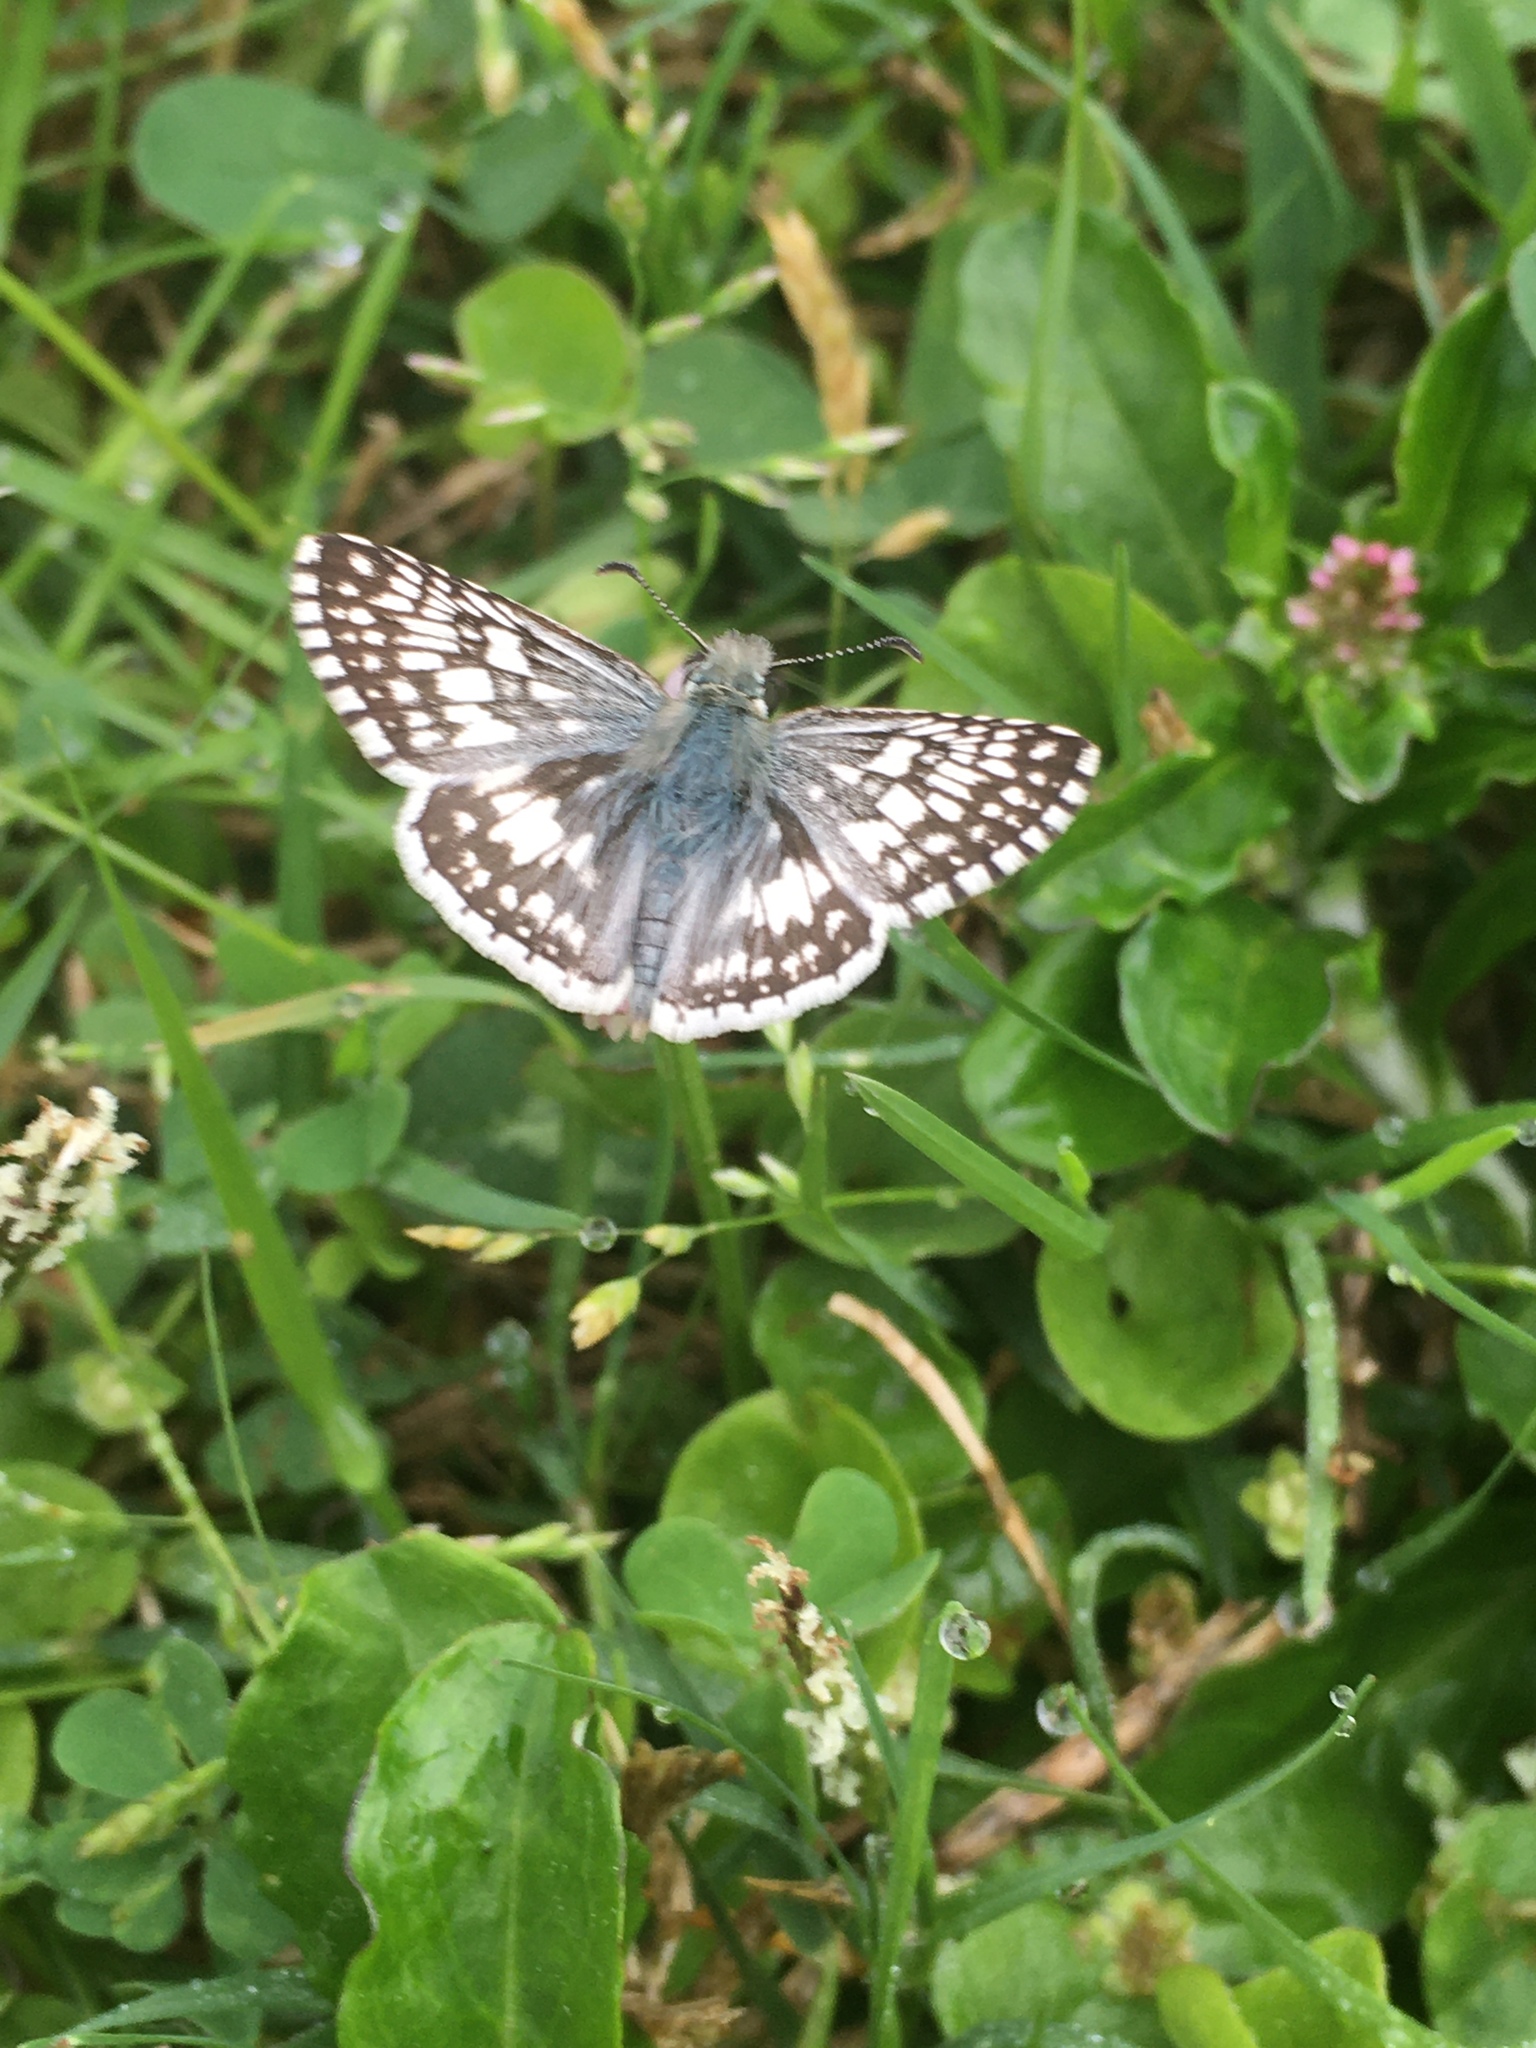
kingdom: Animalia
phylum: Arthropoda
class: Insecta
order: Lepidoptera
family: Hesperiidae
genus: Burnsius
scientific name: Burnsius
